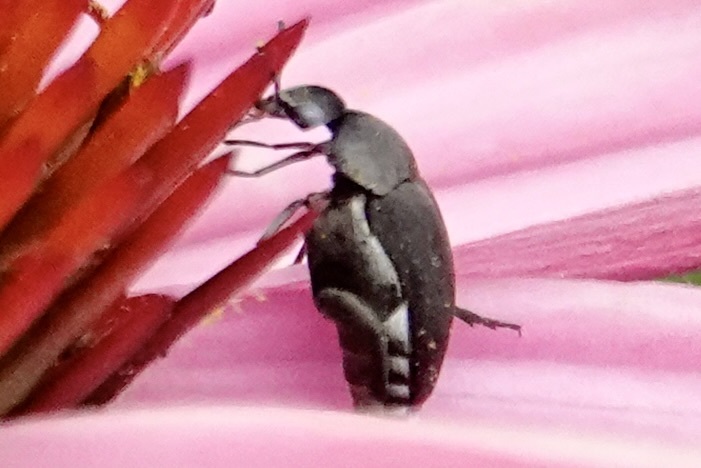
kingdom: Animalia
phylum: Arthropoda
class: Insecta
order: Coleoptera
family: Mordellidae
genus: Mordella
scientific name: Mordella marginata
